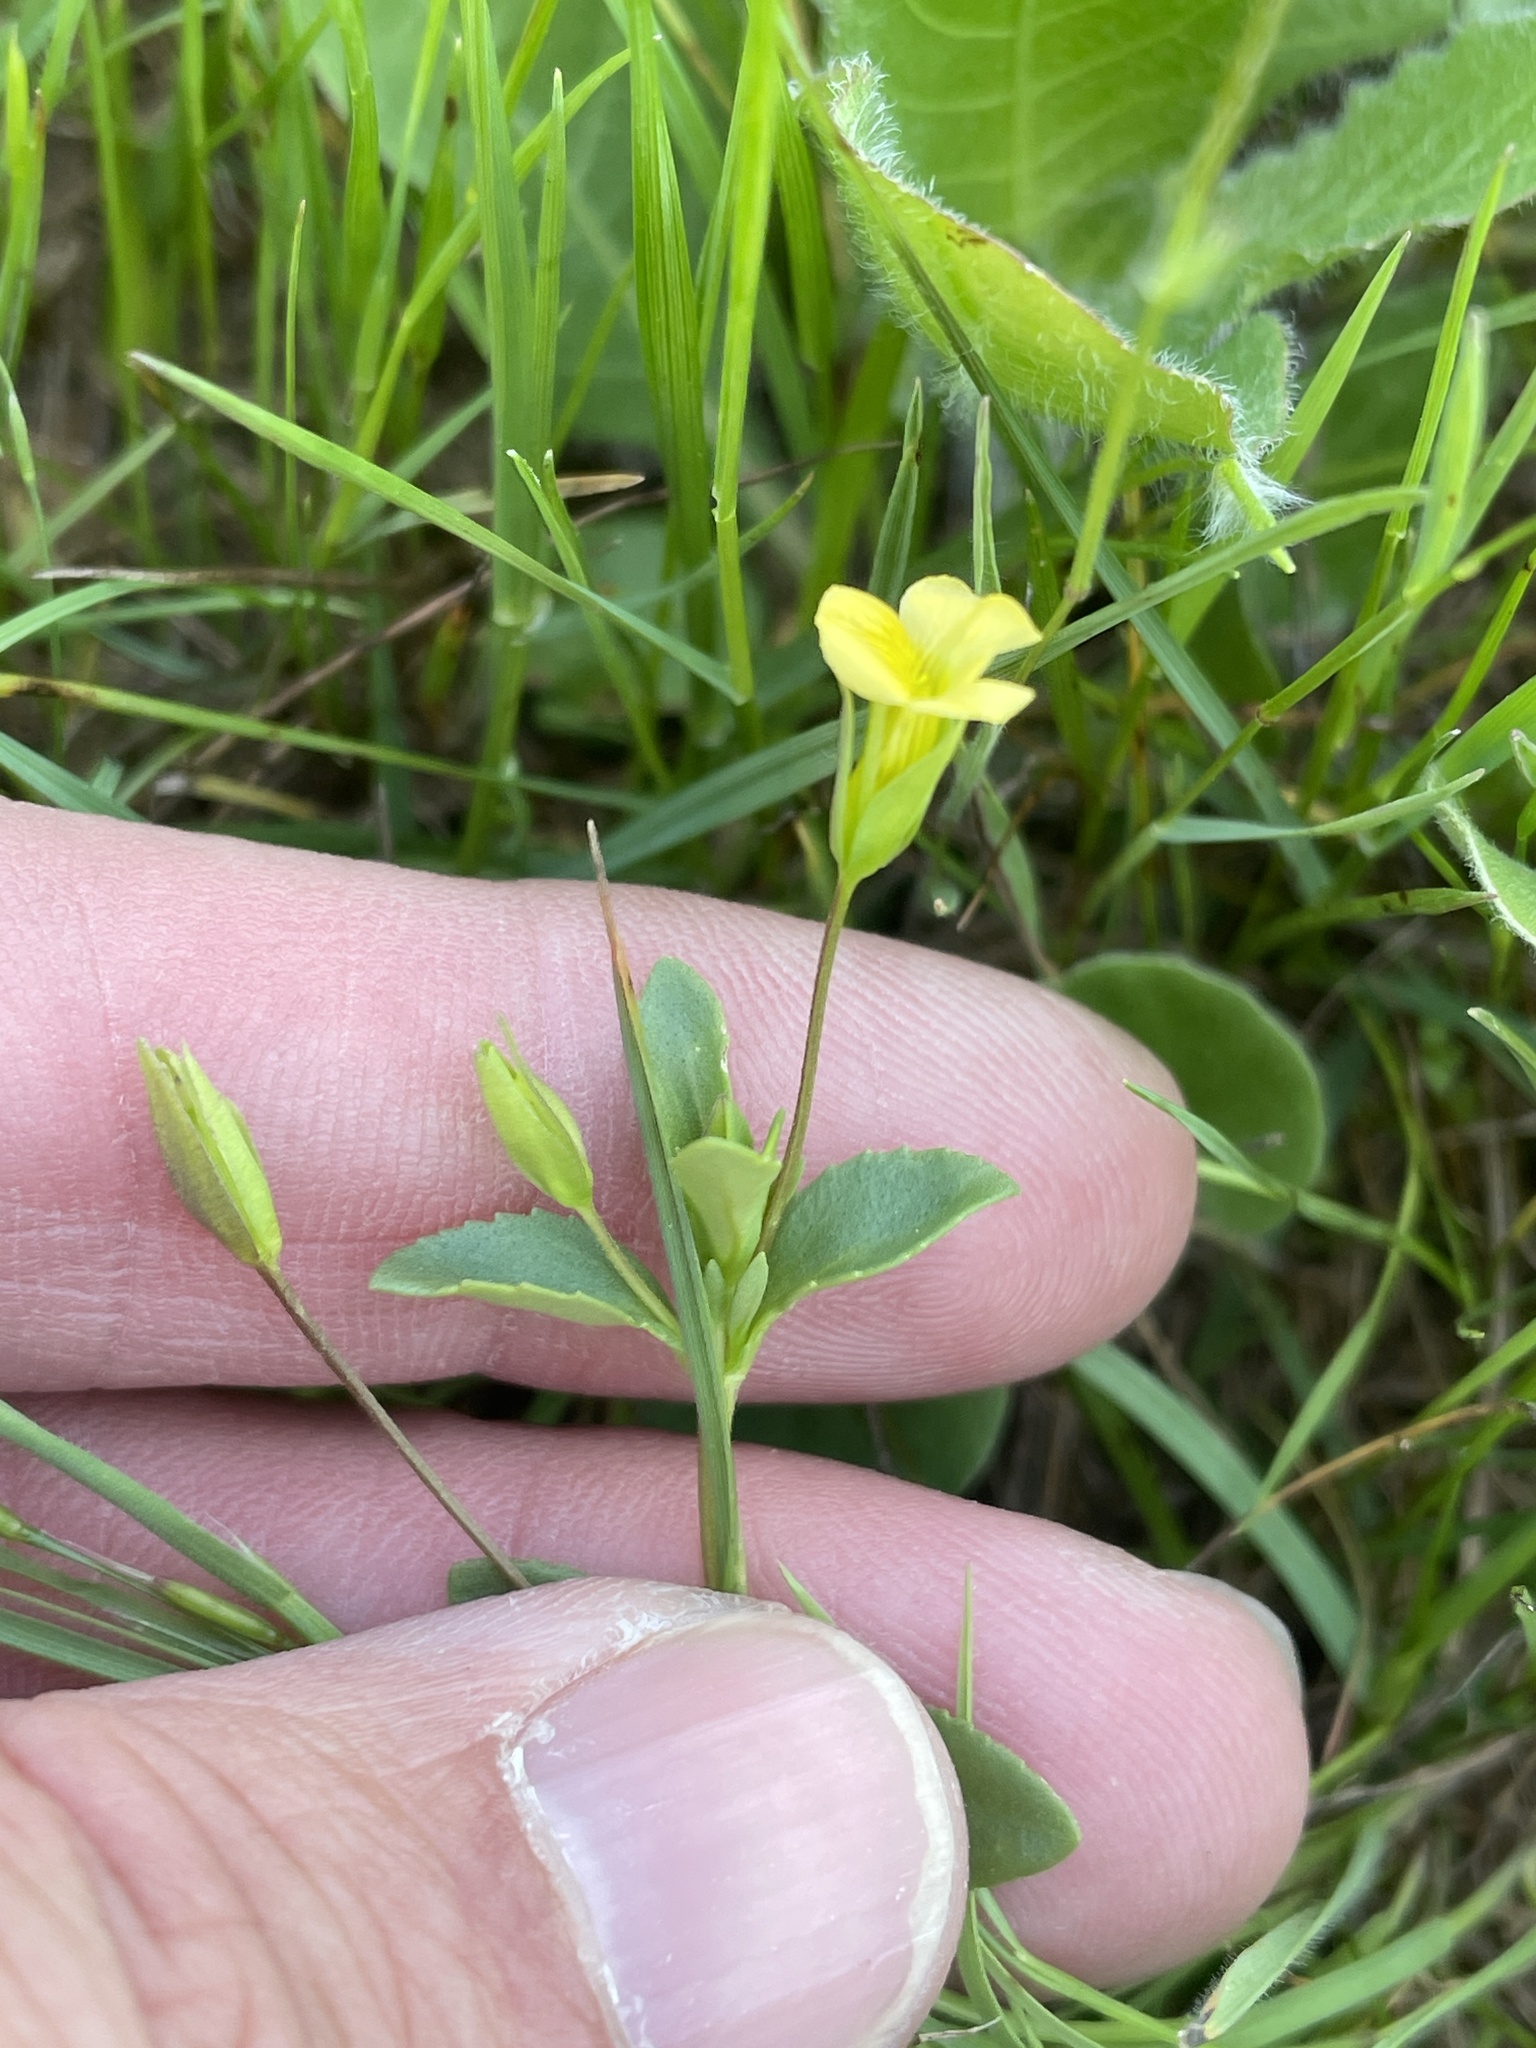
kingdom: Plantae
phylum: Tracheophyta
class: Magnoliopsida
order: Lamiales
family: Plantaginaceae
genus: Mecardonia
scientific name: Mecardonia procumbens
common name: Baby jump-up
